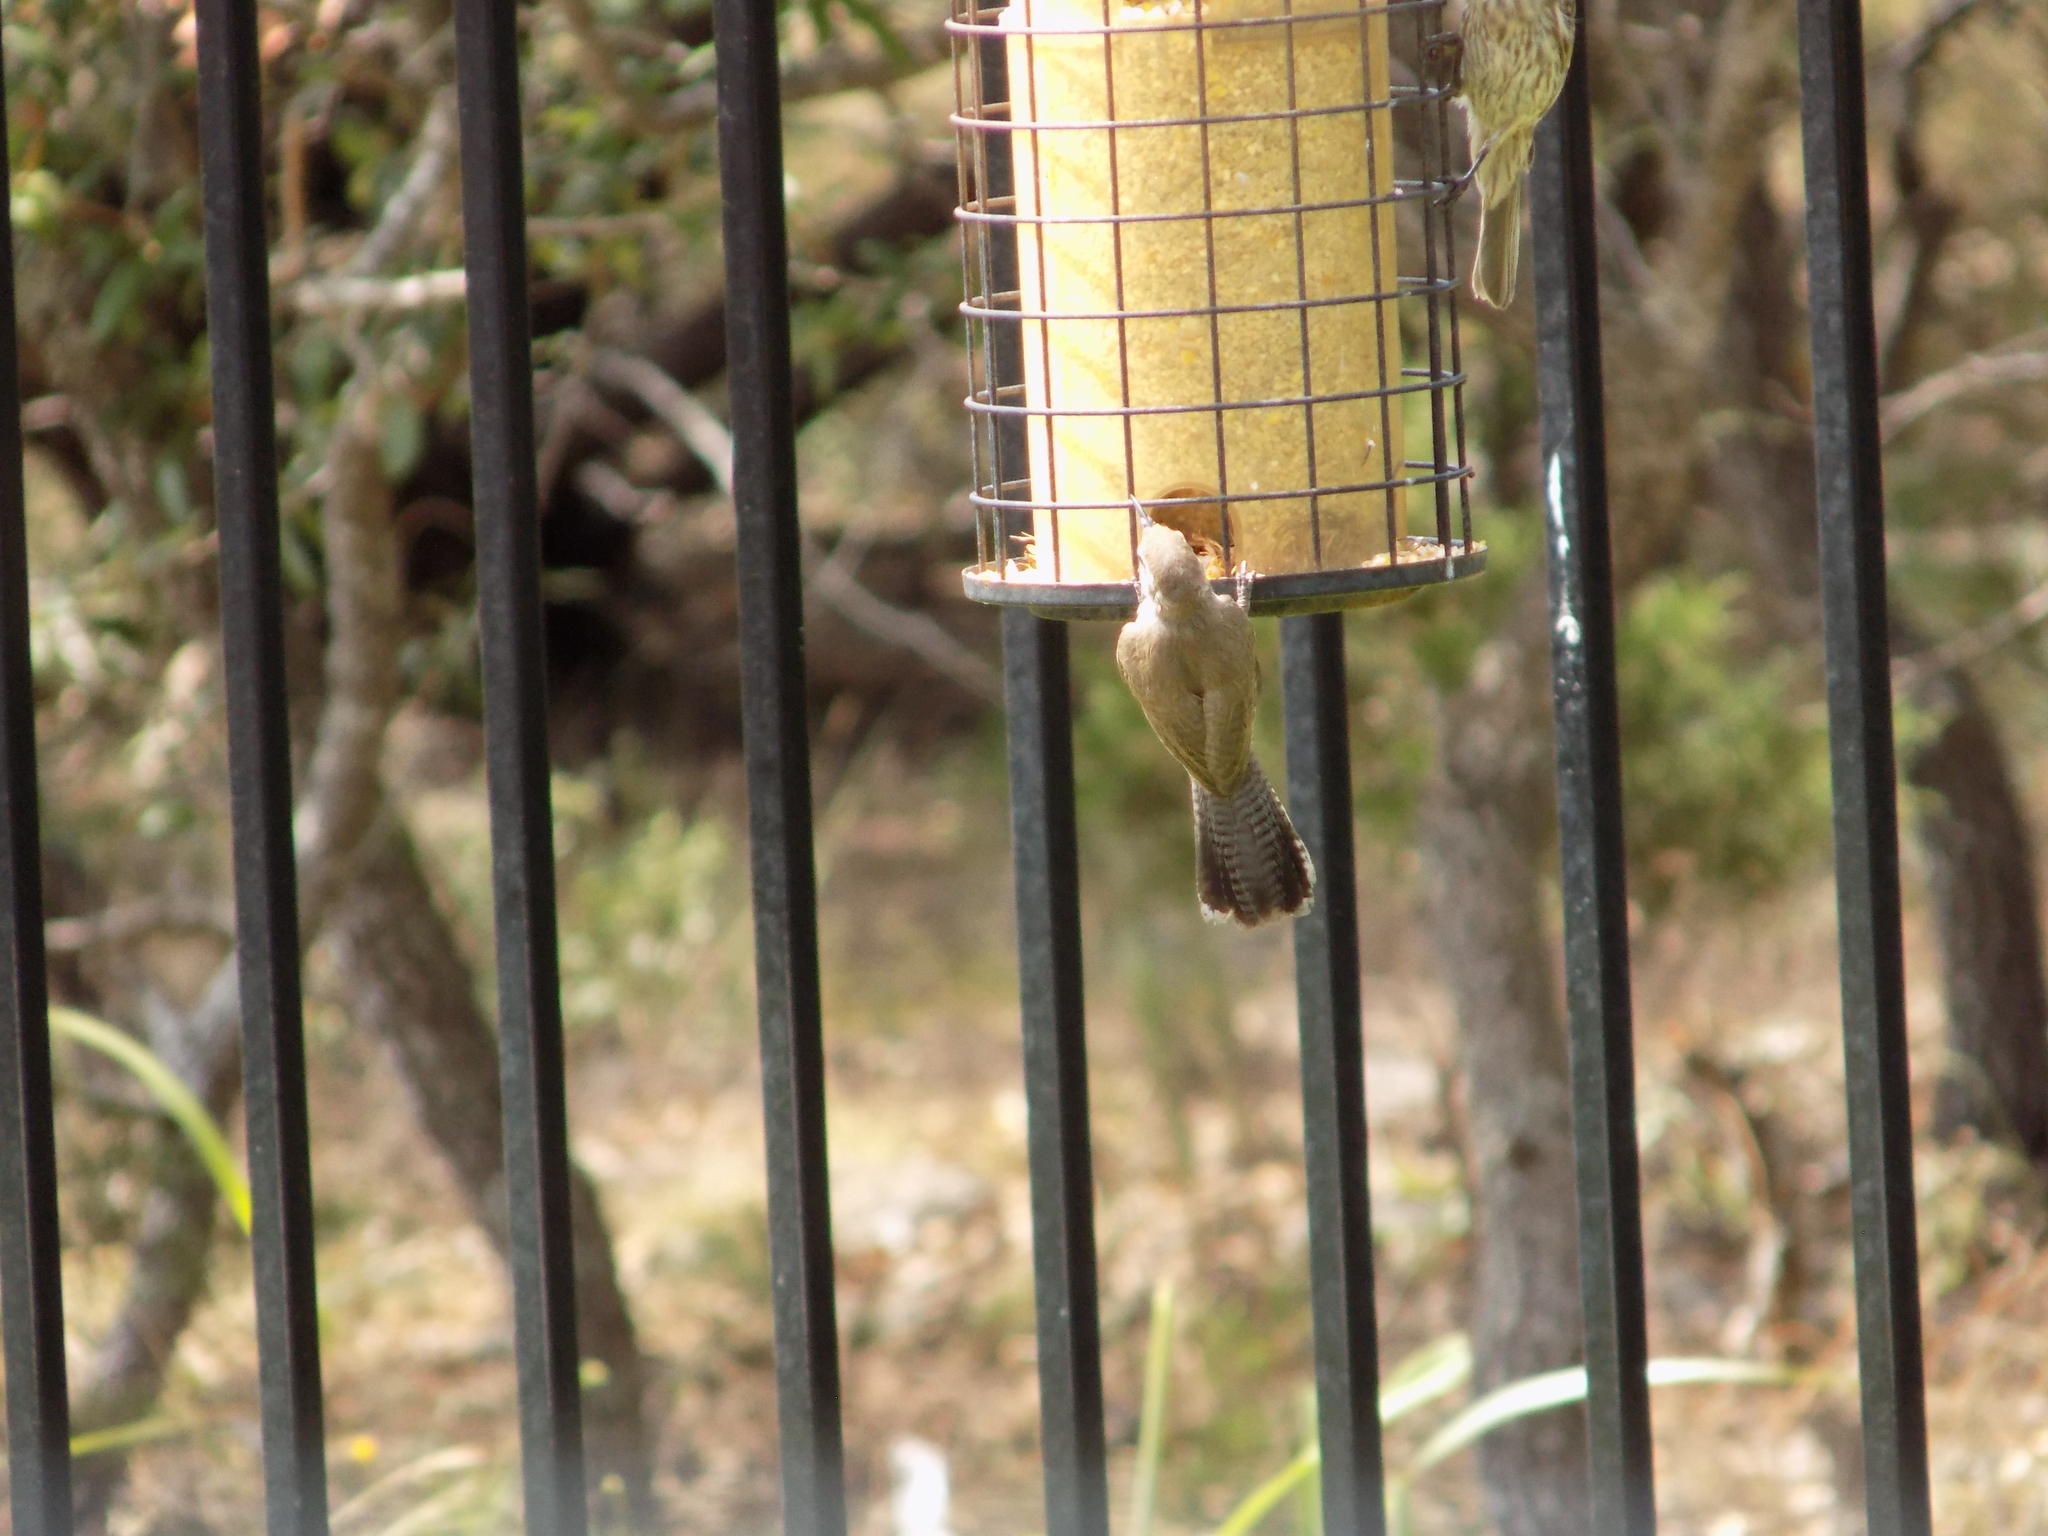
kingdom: Animalia
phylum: Chordata
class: Aves
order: Passeriformes
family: Troglodytidae
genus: Thryomanes
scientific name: Thryomanes bewickii
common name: Bewick's wren
